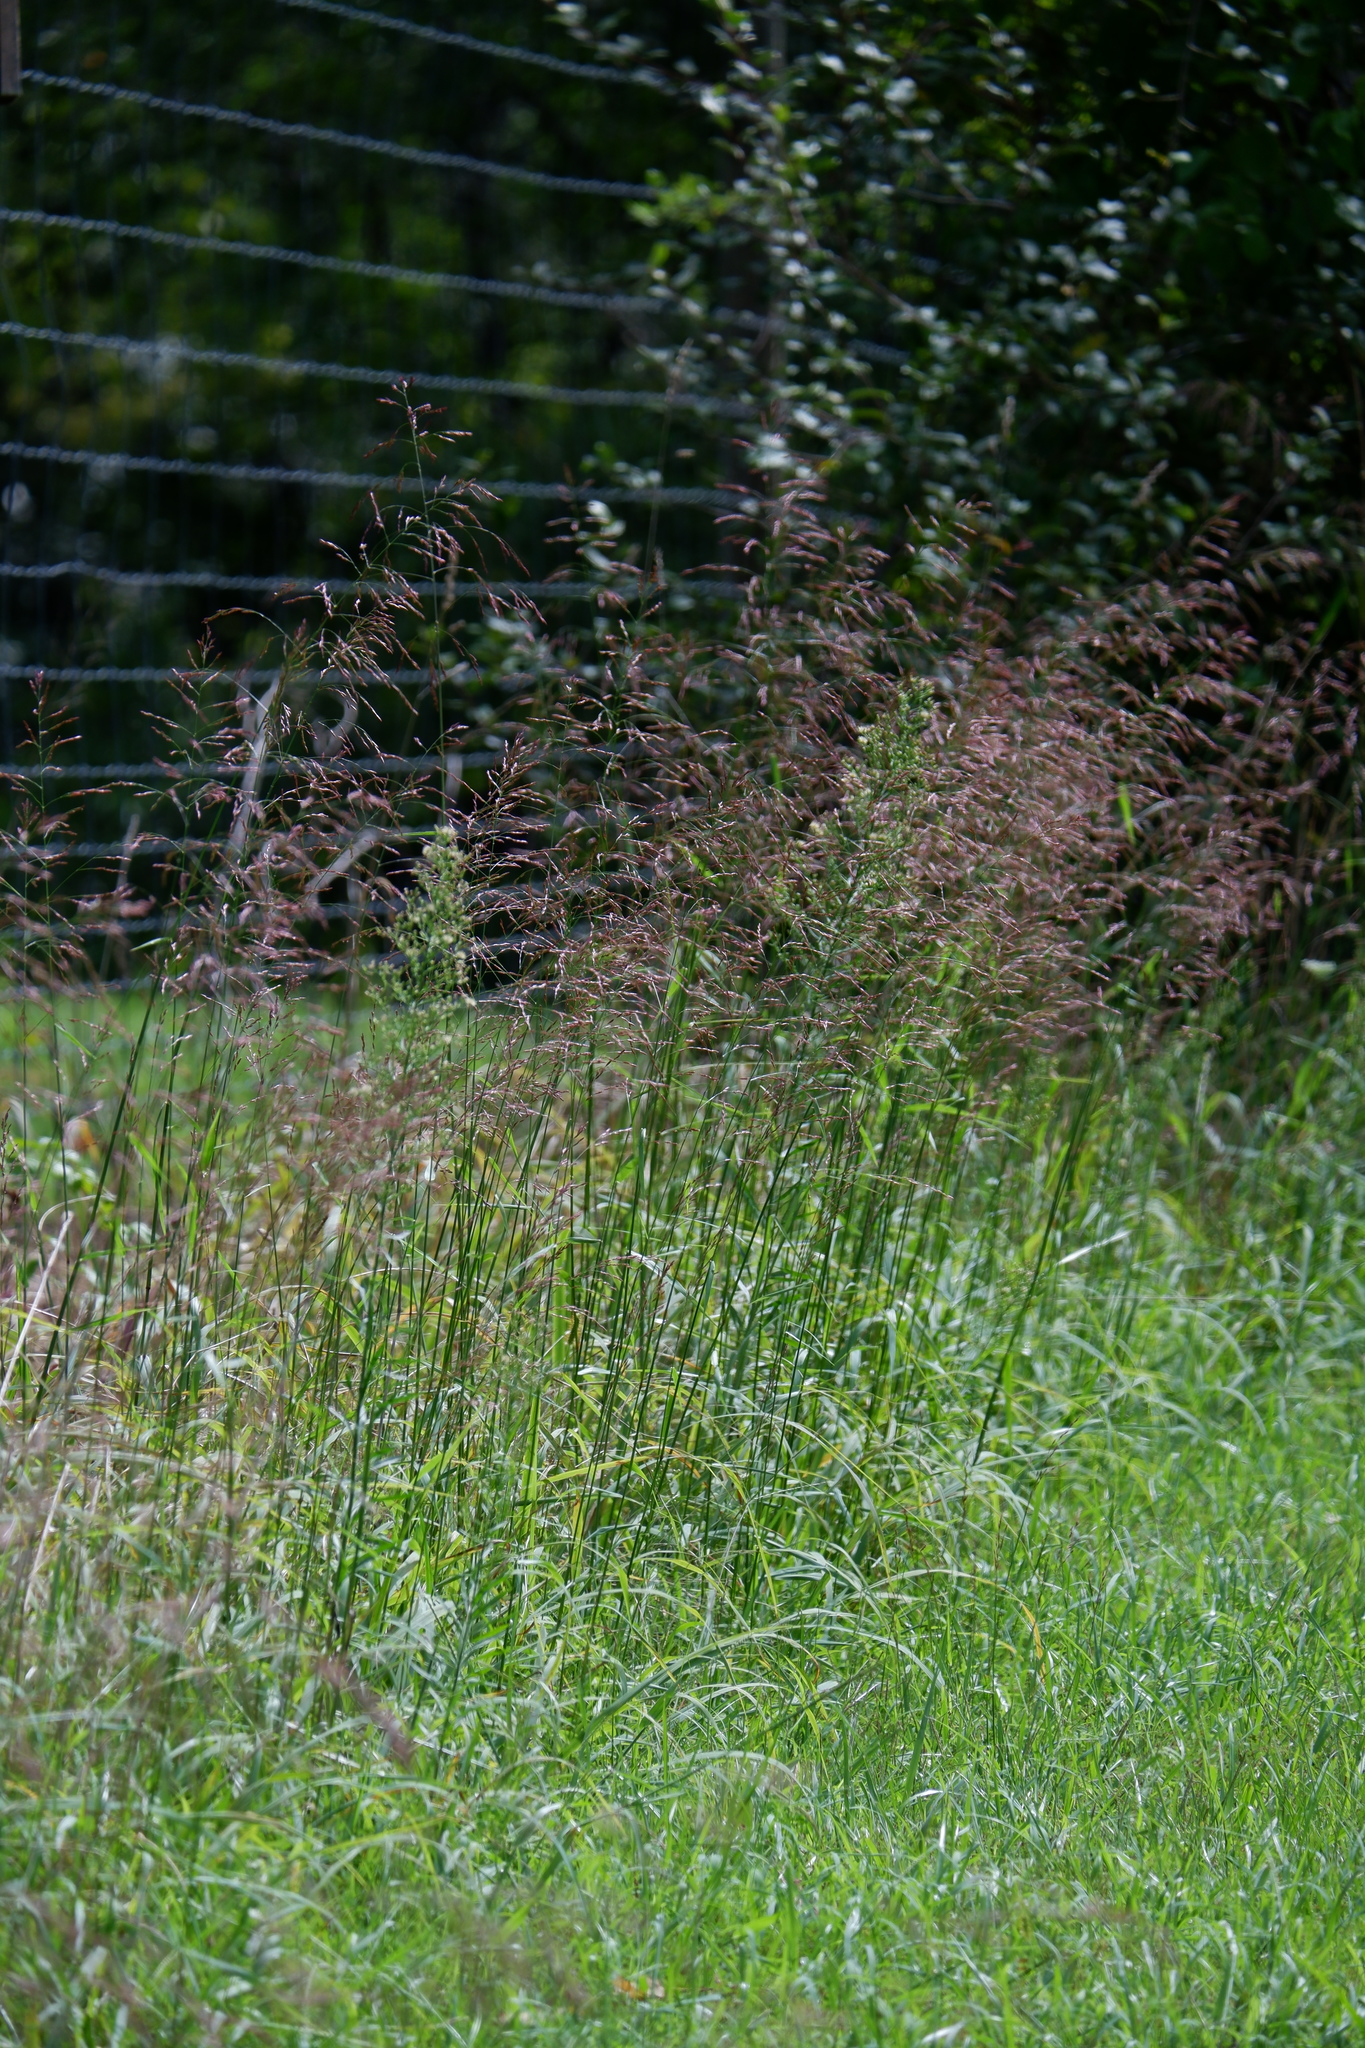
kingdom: Plantae
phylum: Tracheophyta
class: Liliopsida
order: Poales
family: Poaceae
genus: Tridens
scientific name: Tridens flavus
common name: Purpletop
